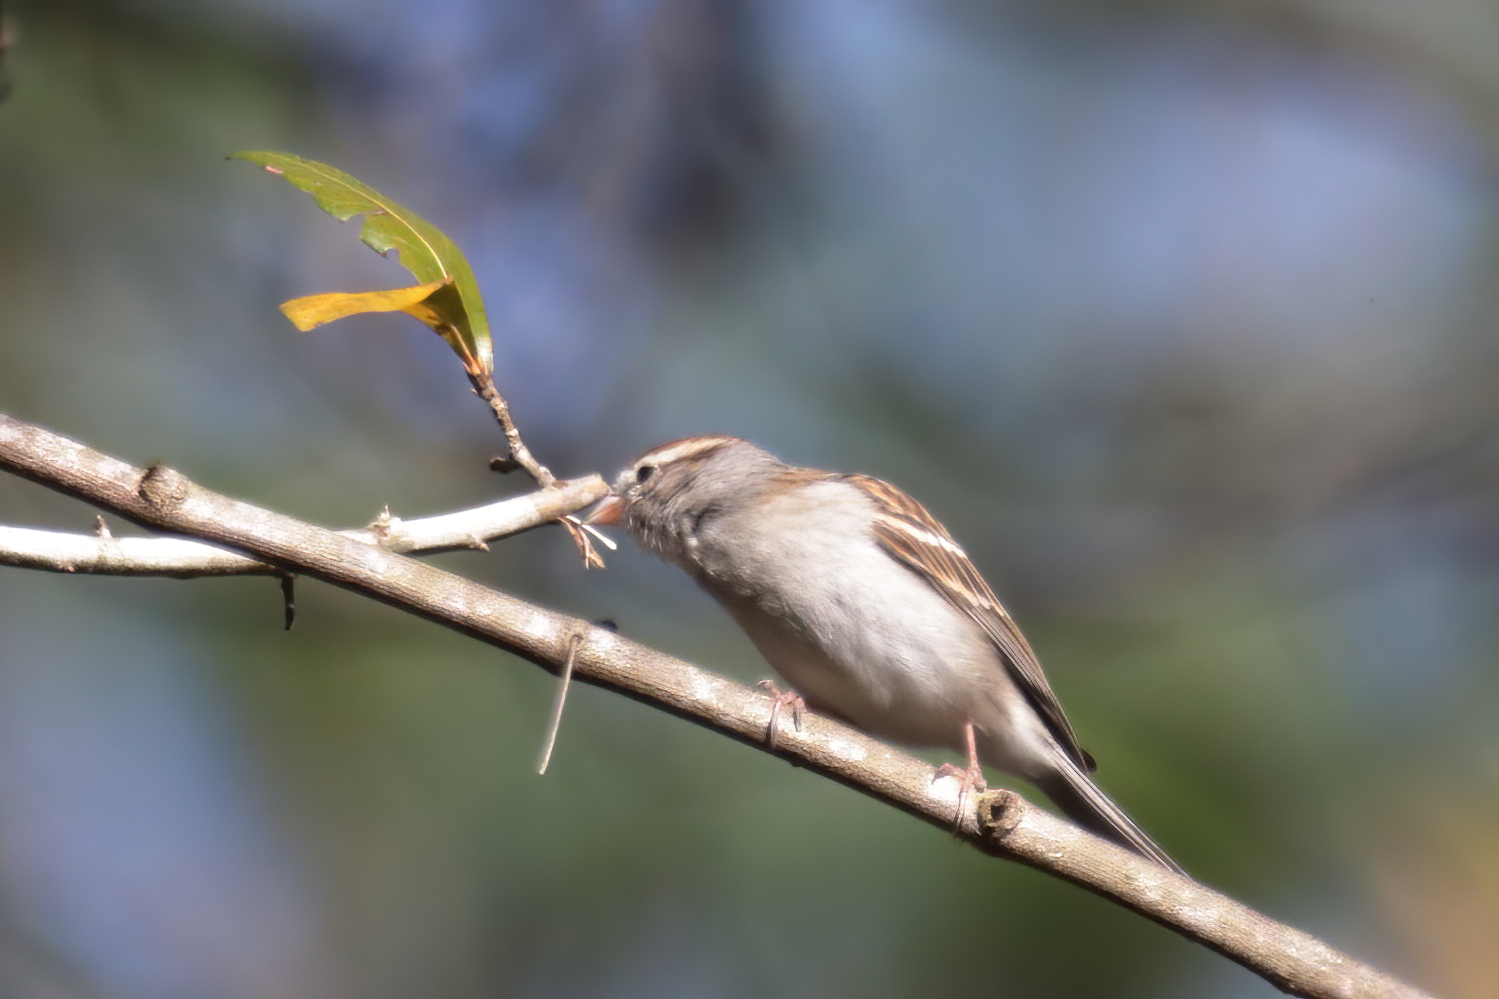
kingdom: Animalia
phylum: Chordata
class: Aves
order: Passeriformes
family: Passerellidae
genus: Spizella
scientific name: Spizella passerina
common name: Chipping sparrow
